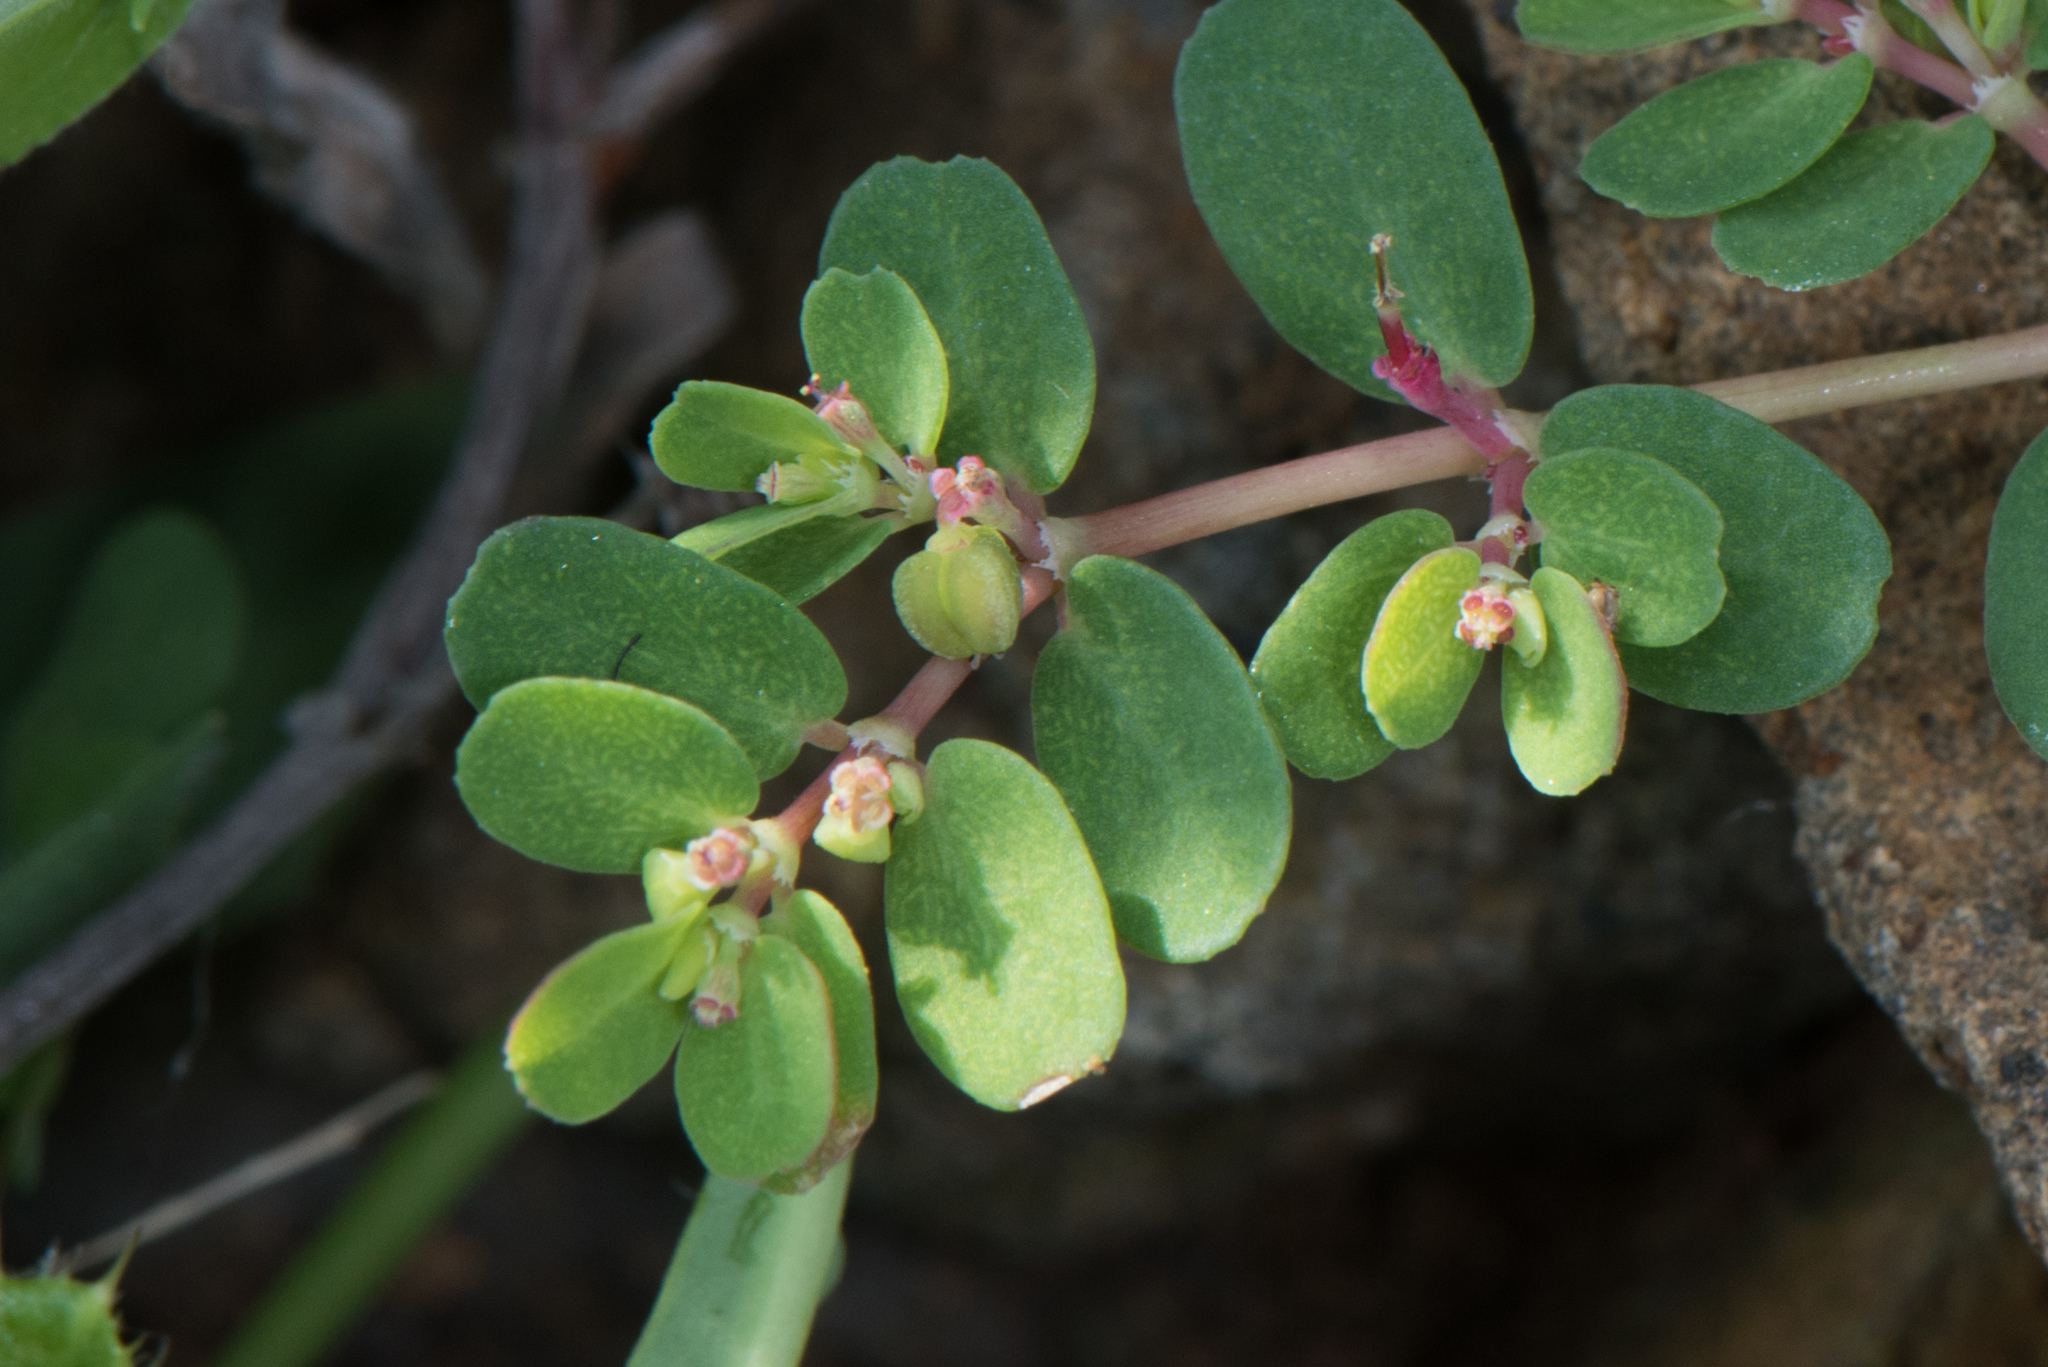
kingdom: Plantae
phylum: Tracheophyta
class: Magnoliopsida
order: Malpighiales
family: Euphorbiaceae
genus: Euphorbia
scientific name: Euphorbia taihsiensis
